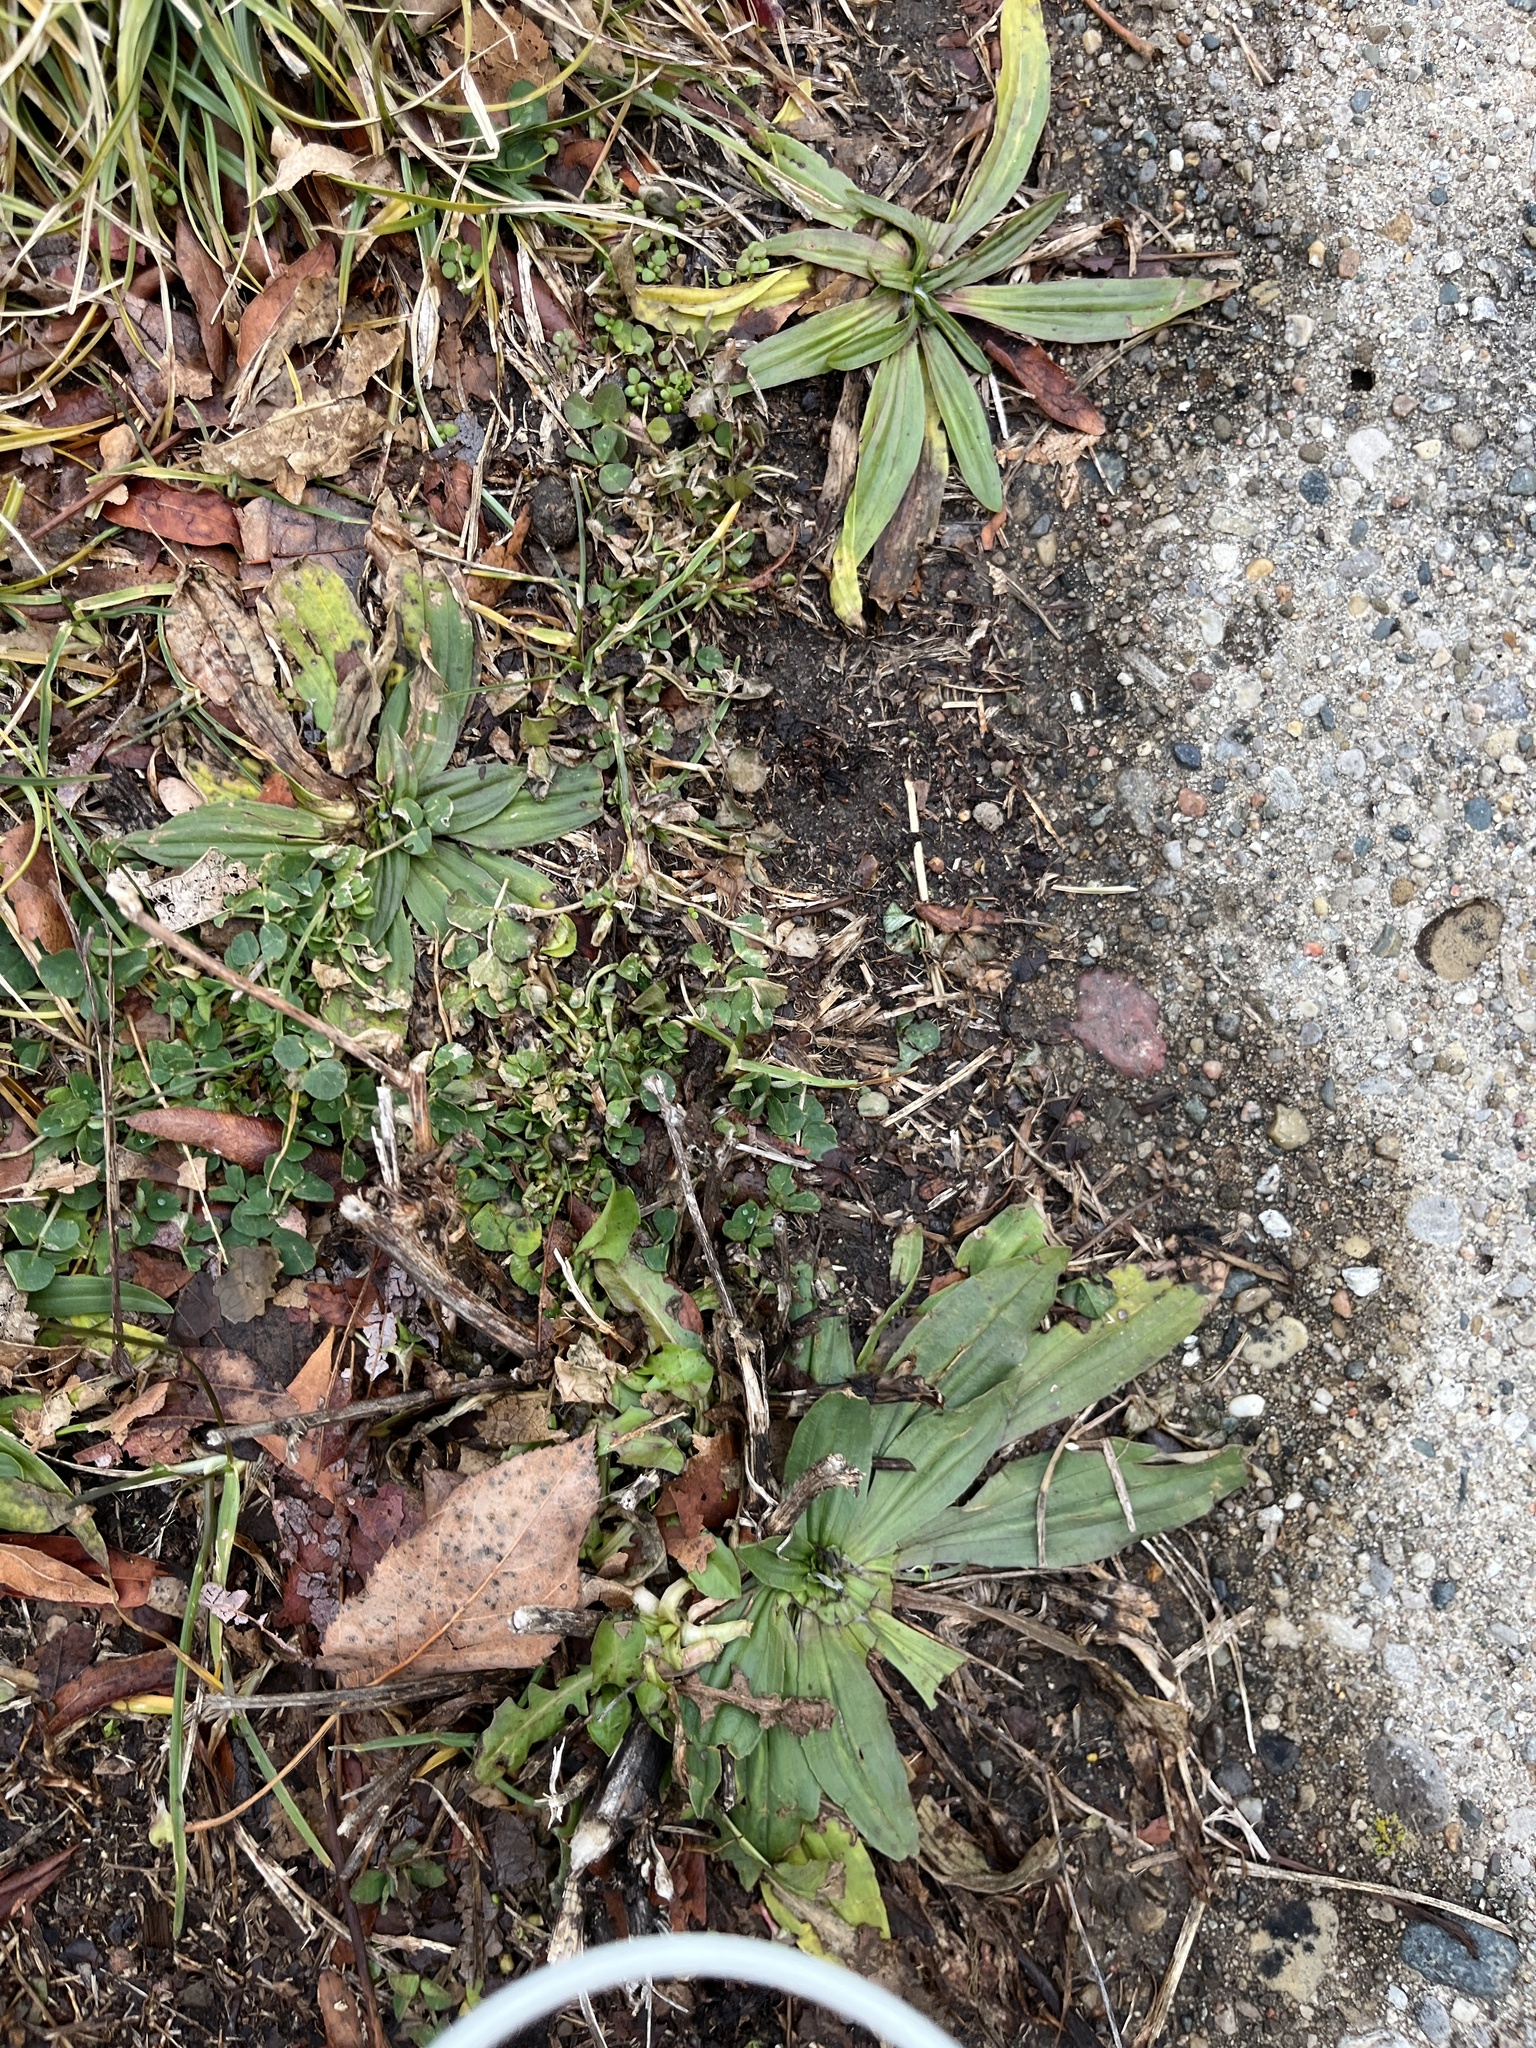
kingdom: Plantae
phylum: Tracheophyta
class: Magnoliopsida
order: Lamiales
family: Plantaginaceae
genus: Plantago
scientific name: Plantago lanceolata
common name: Ribwort plantain
